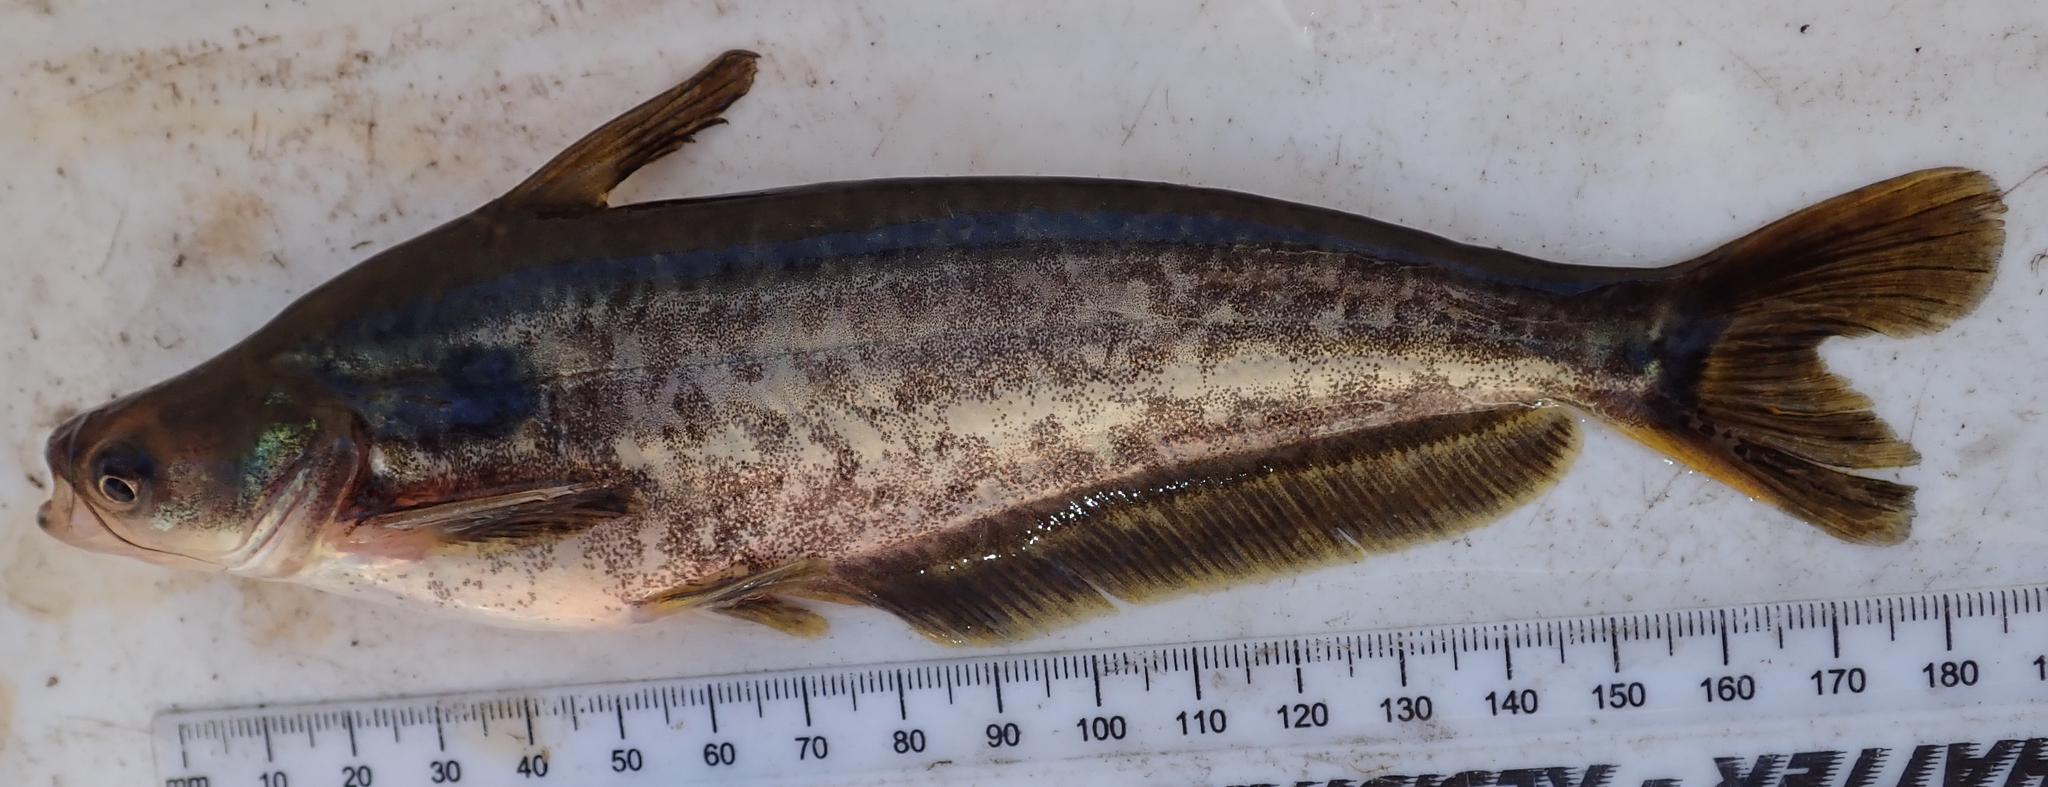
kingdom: Animalia
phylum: Chordata
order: Siluriformes
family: Schilbeidae
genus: Schilbe
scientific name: Schilbe intermedius
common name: Silver catfish
